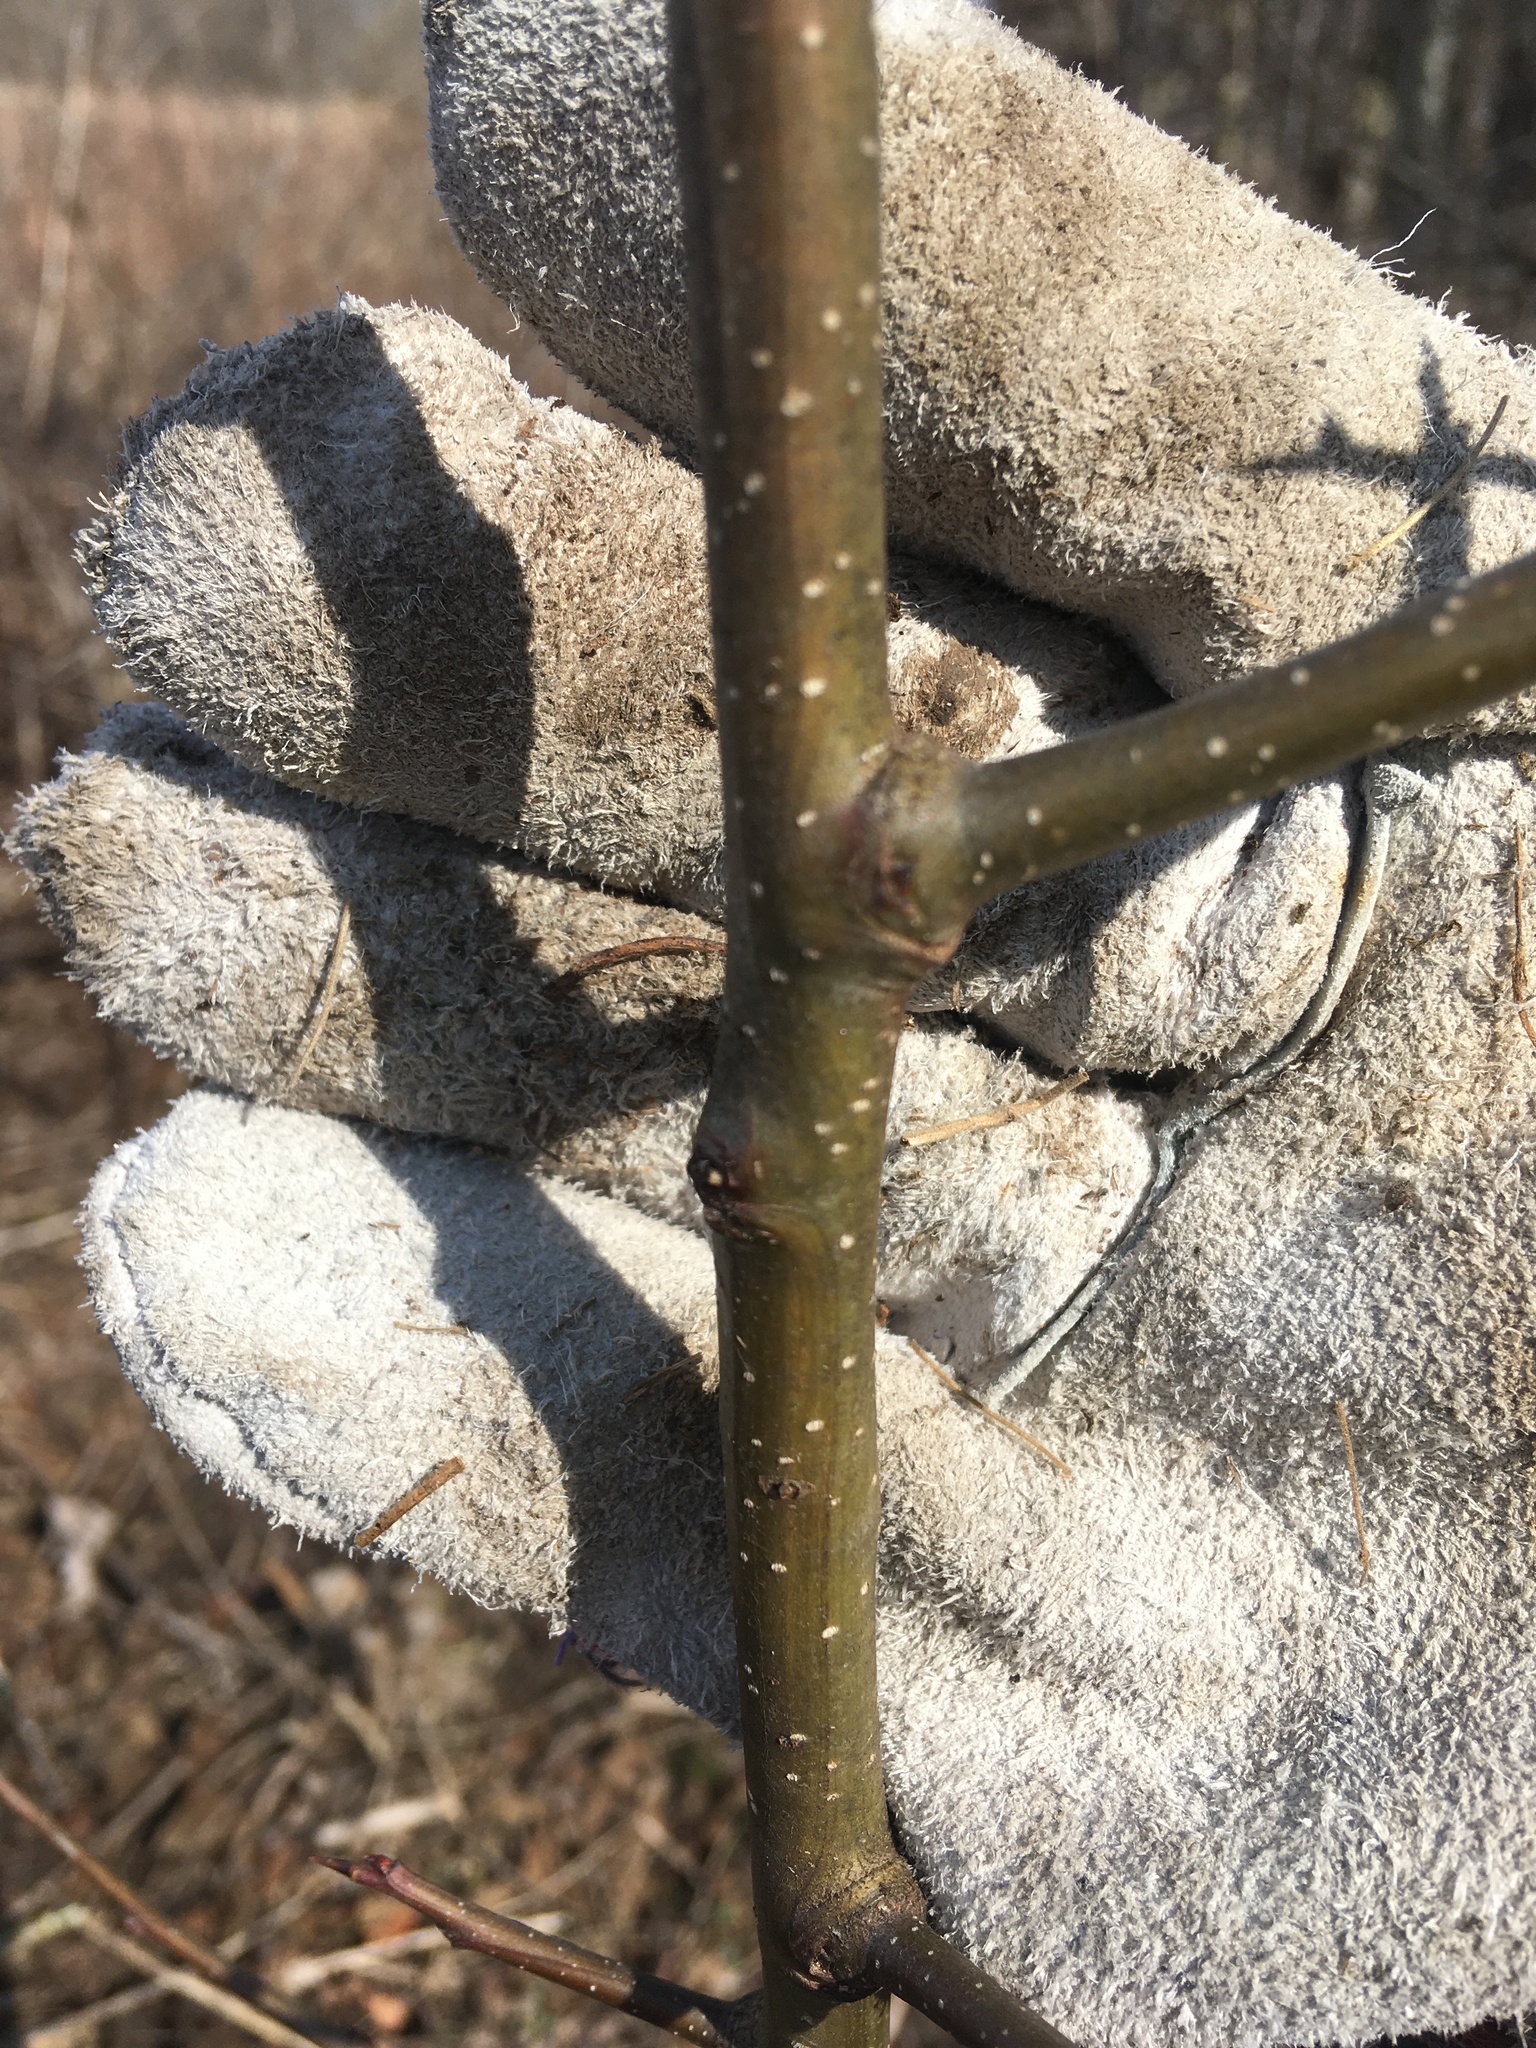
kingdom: Plantae
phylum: Tracheophyta
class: Magnoliopsida
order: Rosales
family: Rosaceae
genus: Pyrus
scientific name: Pyrus calleryana
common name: Callery pear
